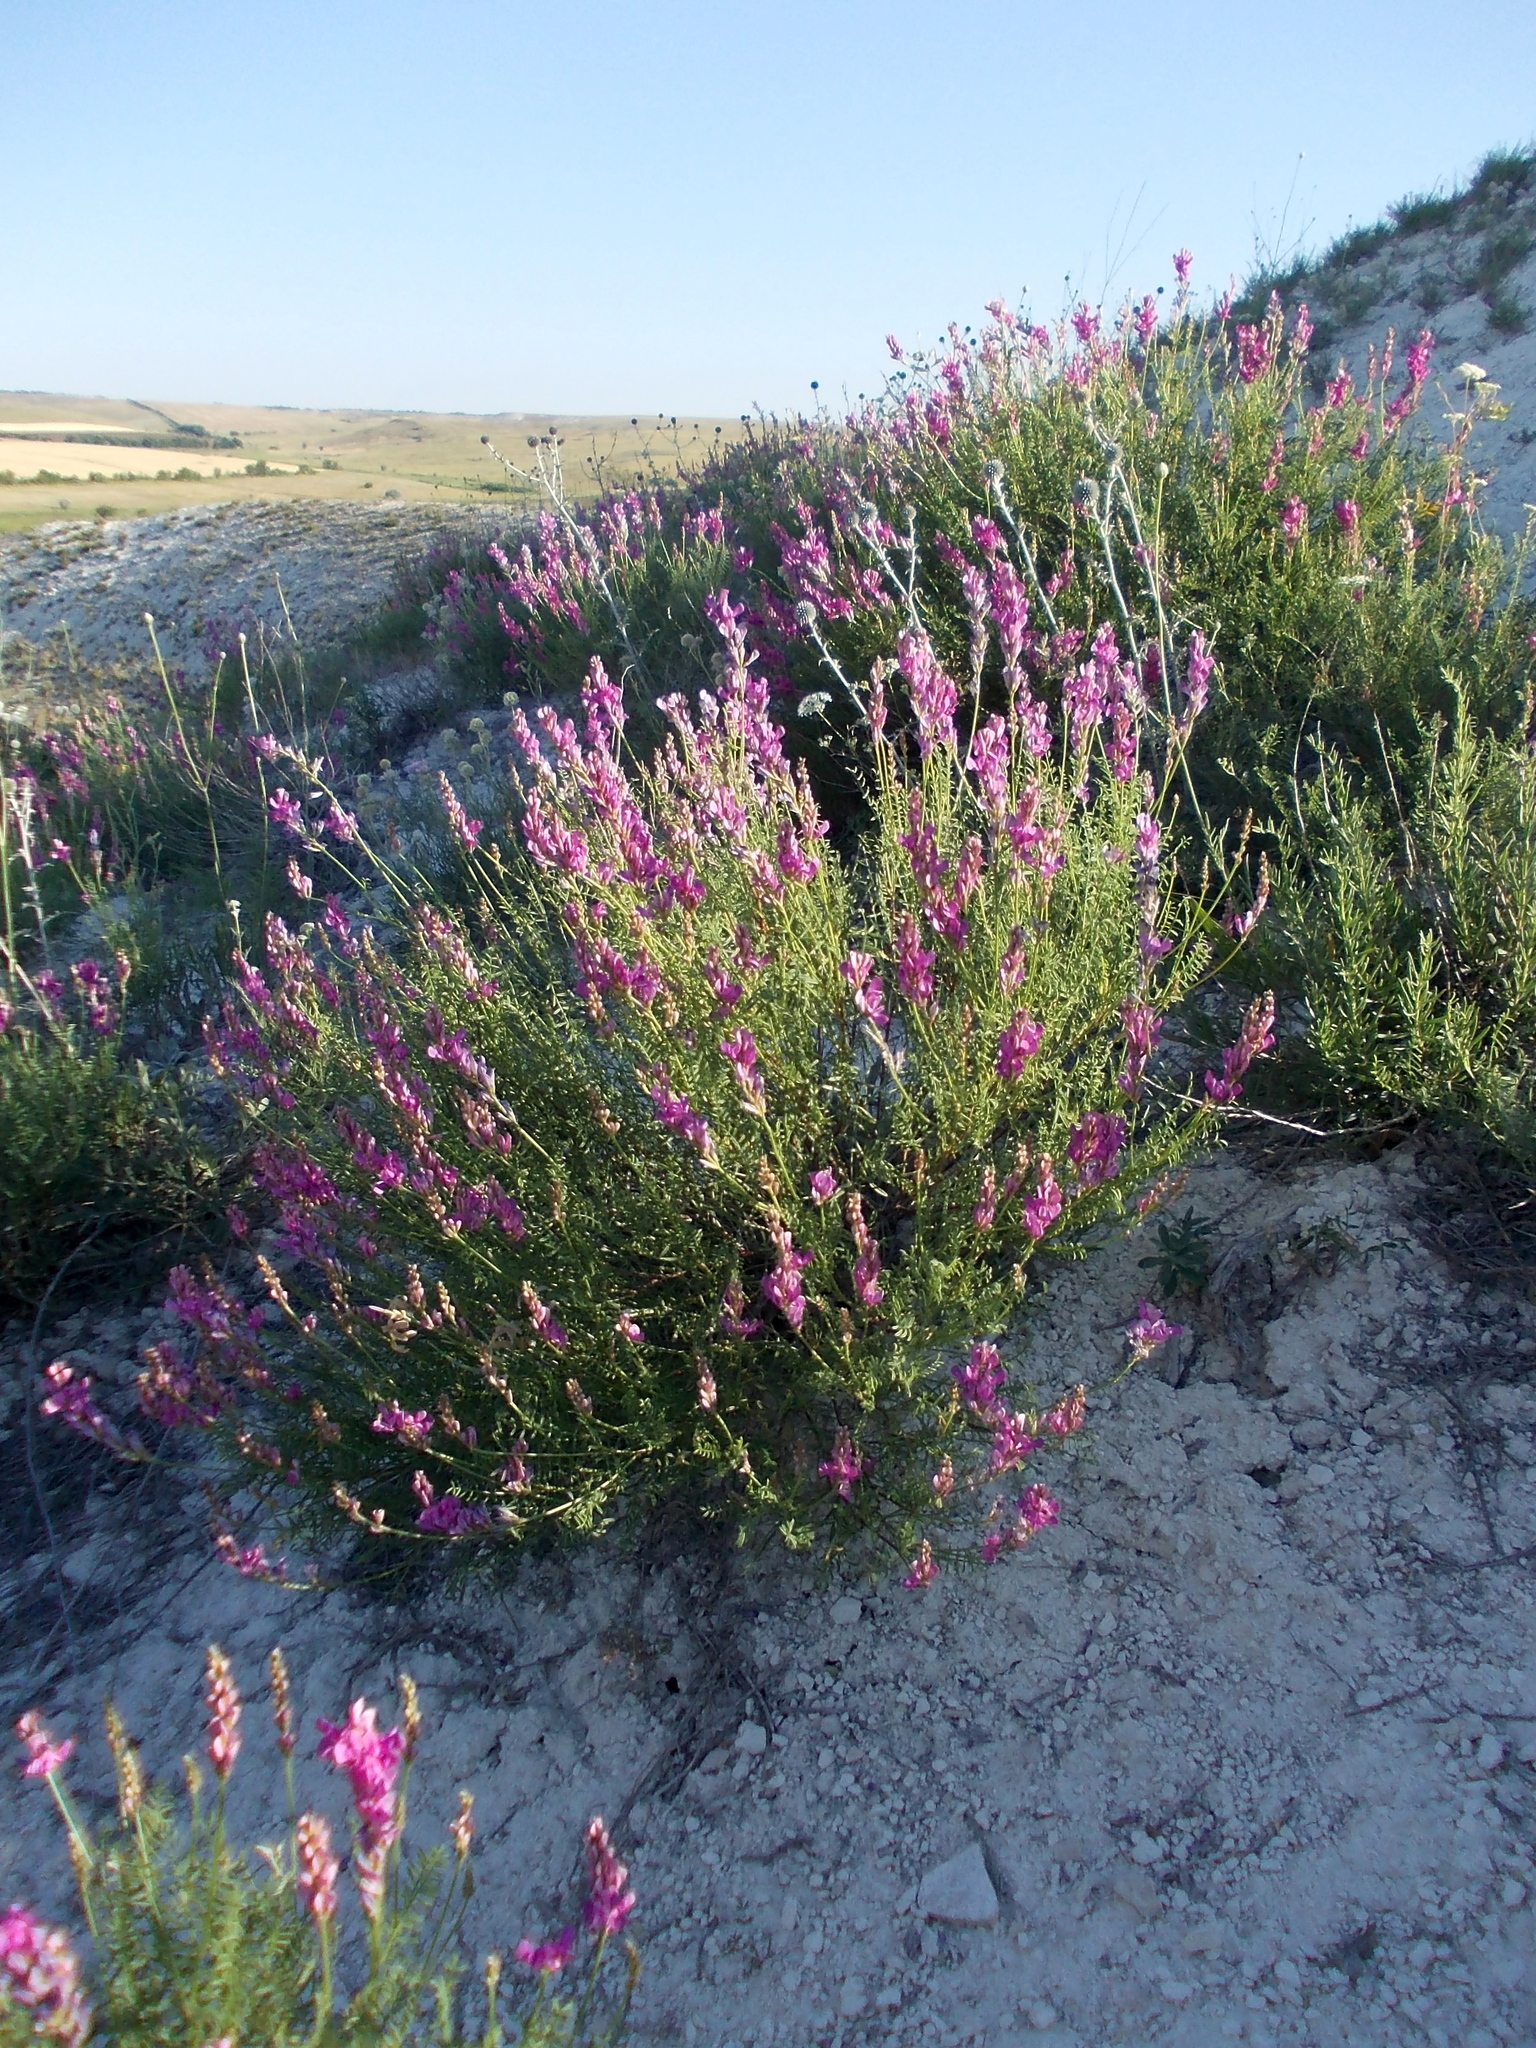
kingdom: Plantae
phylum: Tracheophyta
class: Magnoliopsida
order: Fabales
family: Fabaceae
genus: Hedysarum
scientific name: Hedysarum cretaceum
